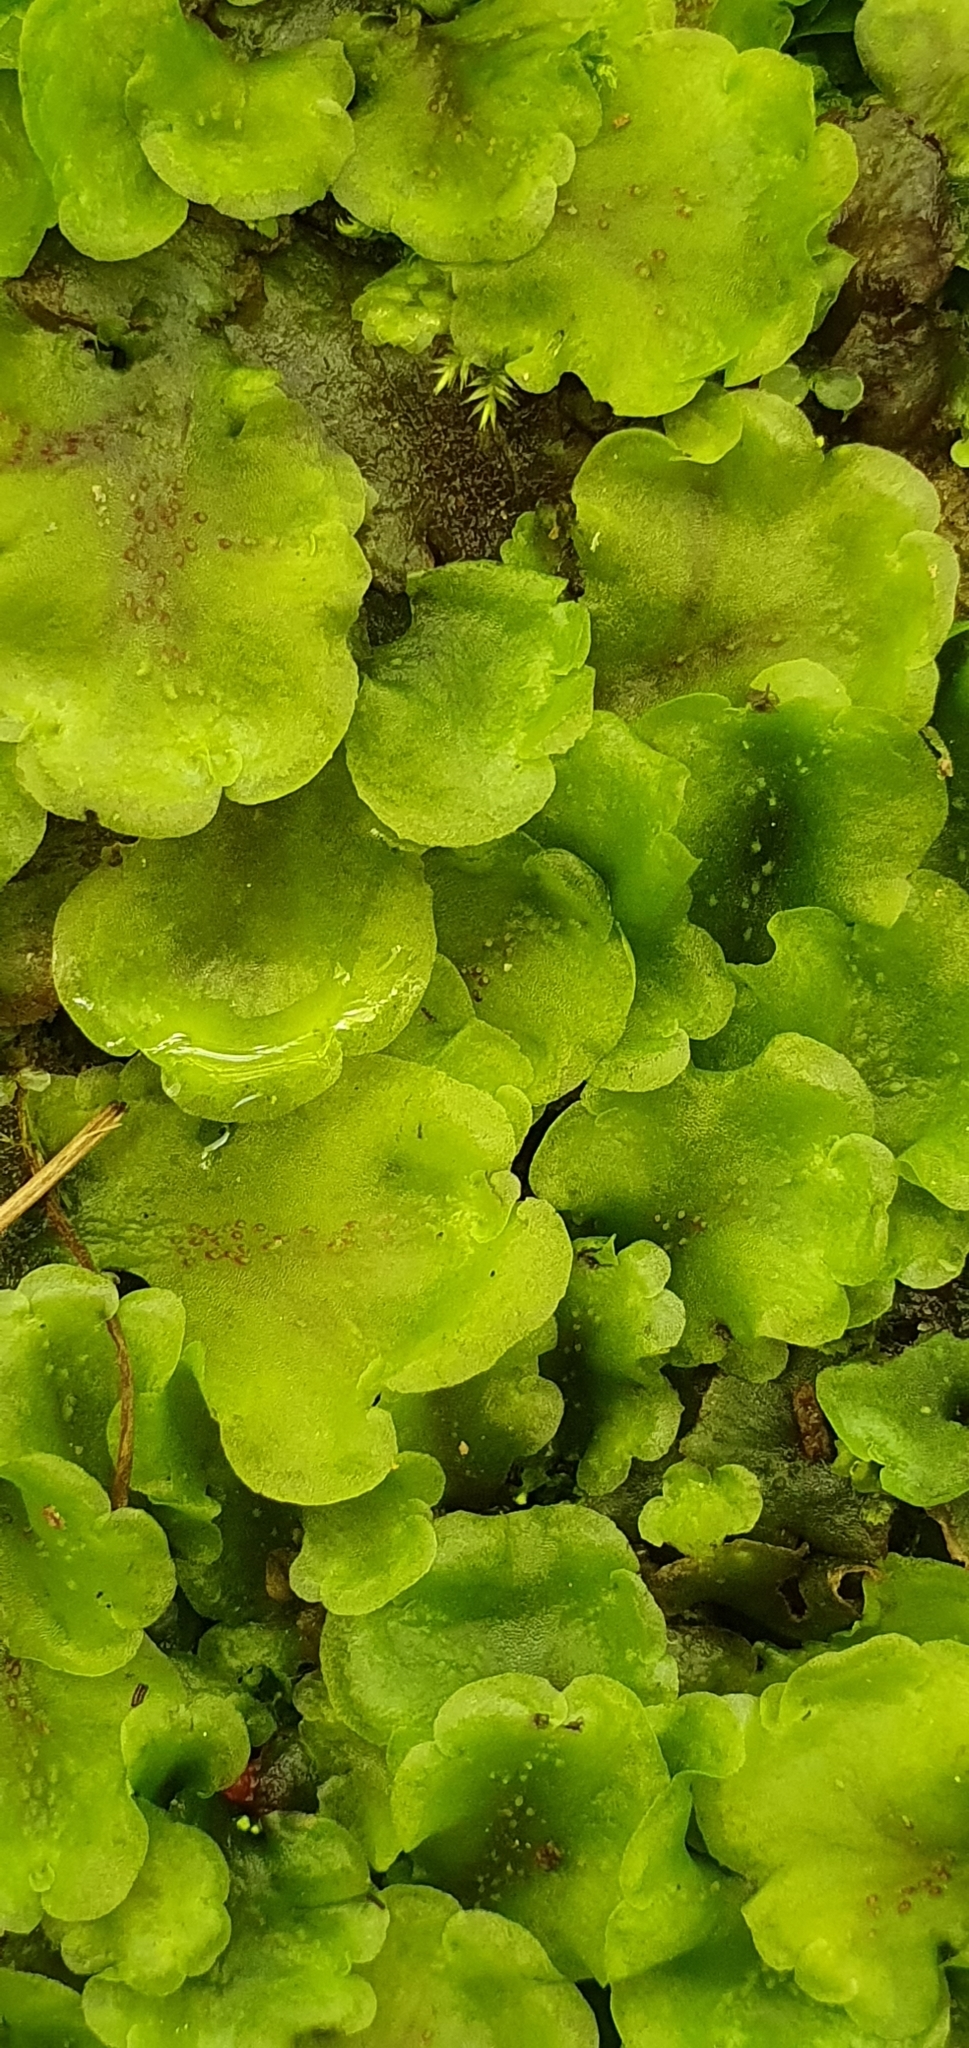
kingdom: Plantae
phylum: Marchantiophyta
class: Jungermanniopsida
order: Pelliales
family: Pelliaceae
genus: Pellia
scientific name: Pellia neesiana
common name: Nees  pellia
